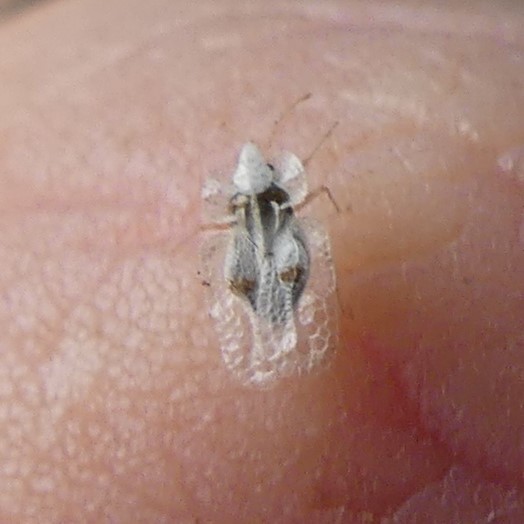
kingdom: Animalia
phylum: Arthropoda
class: Insecta
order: Hemiptera
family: Tingidae
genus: Corythucha
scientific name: Corythucha ciliata
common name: Sycamore lace bug
